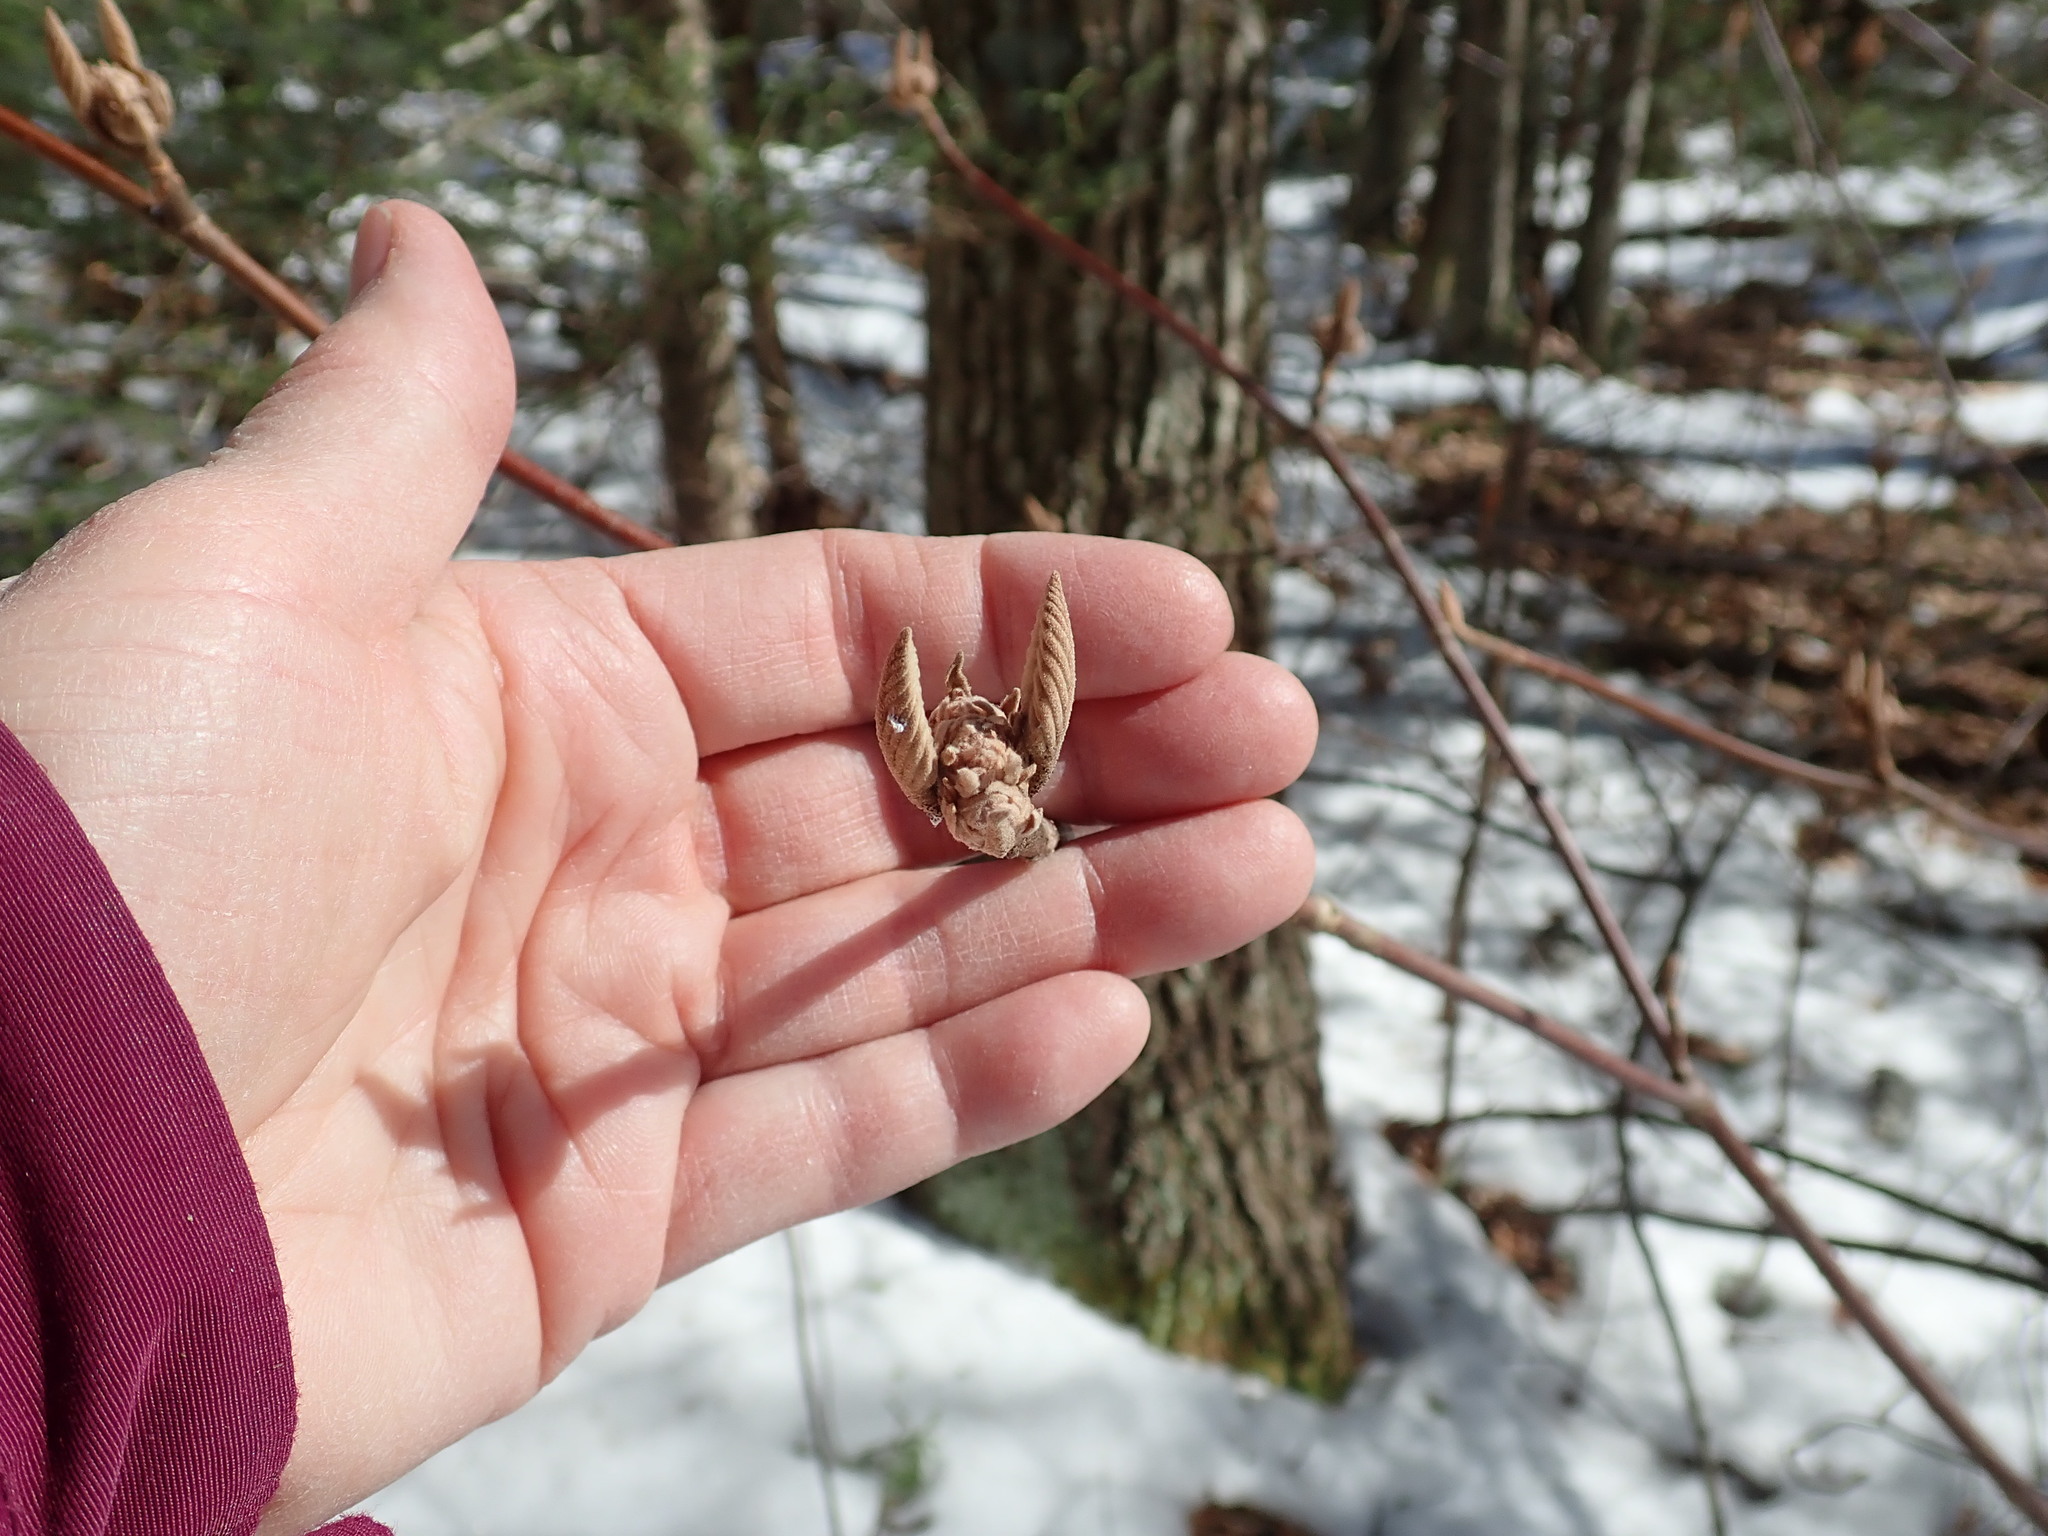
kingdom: Plantae
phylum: Tracheophyta
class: Magnoliopsida
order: Dipsacales
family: Viburnaceae
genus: Viburnum
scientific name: Viburnum lantanoides
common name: Hobblebush
